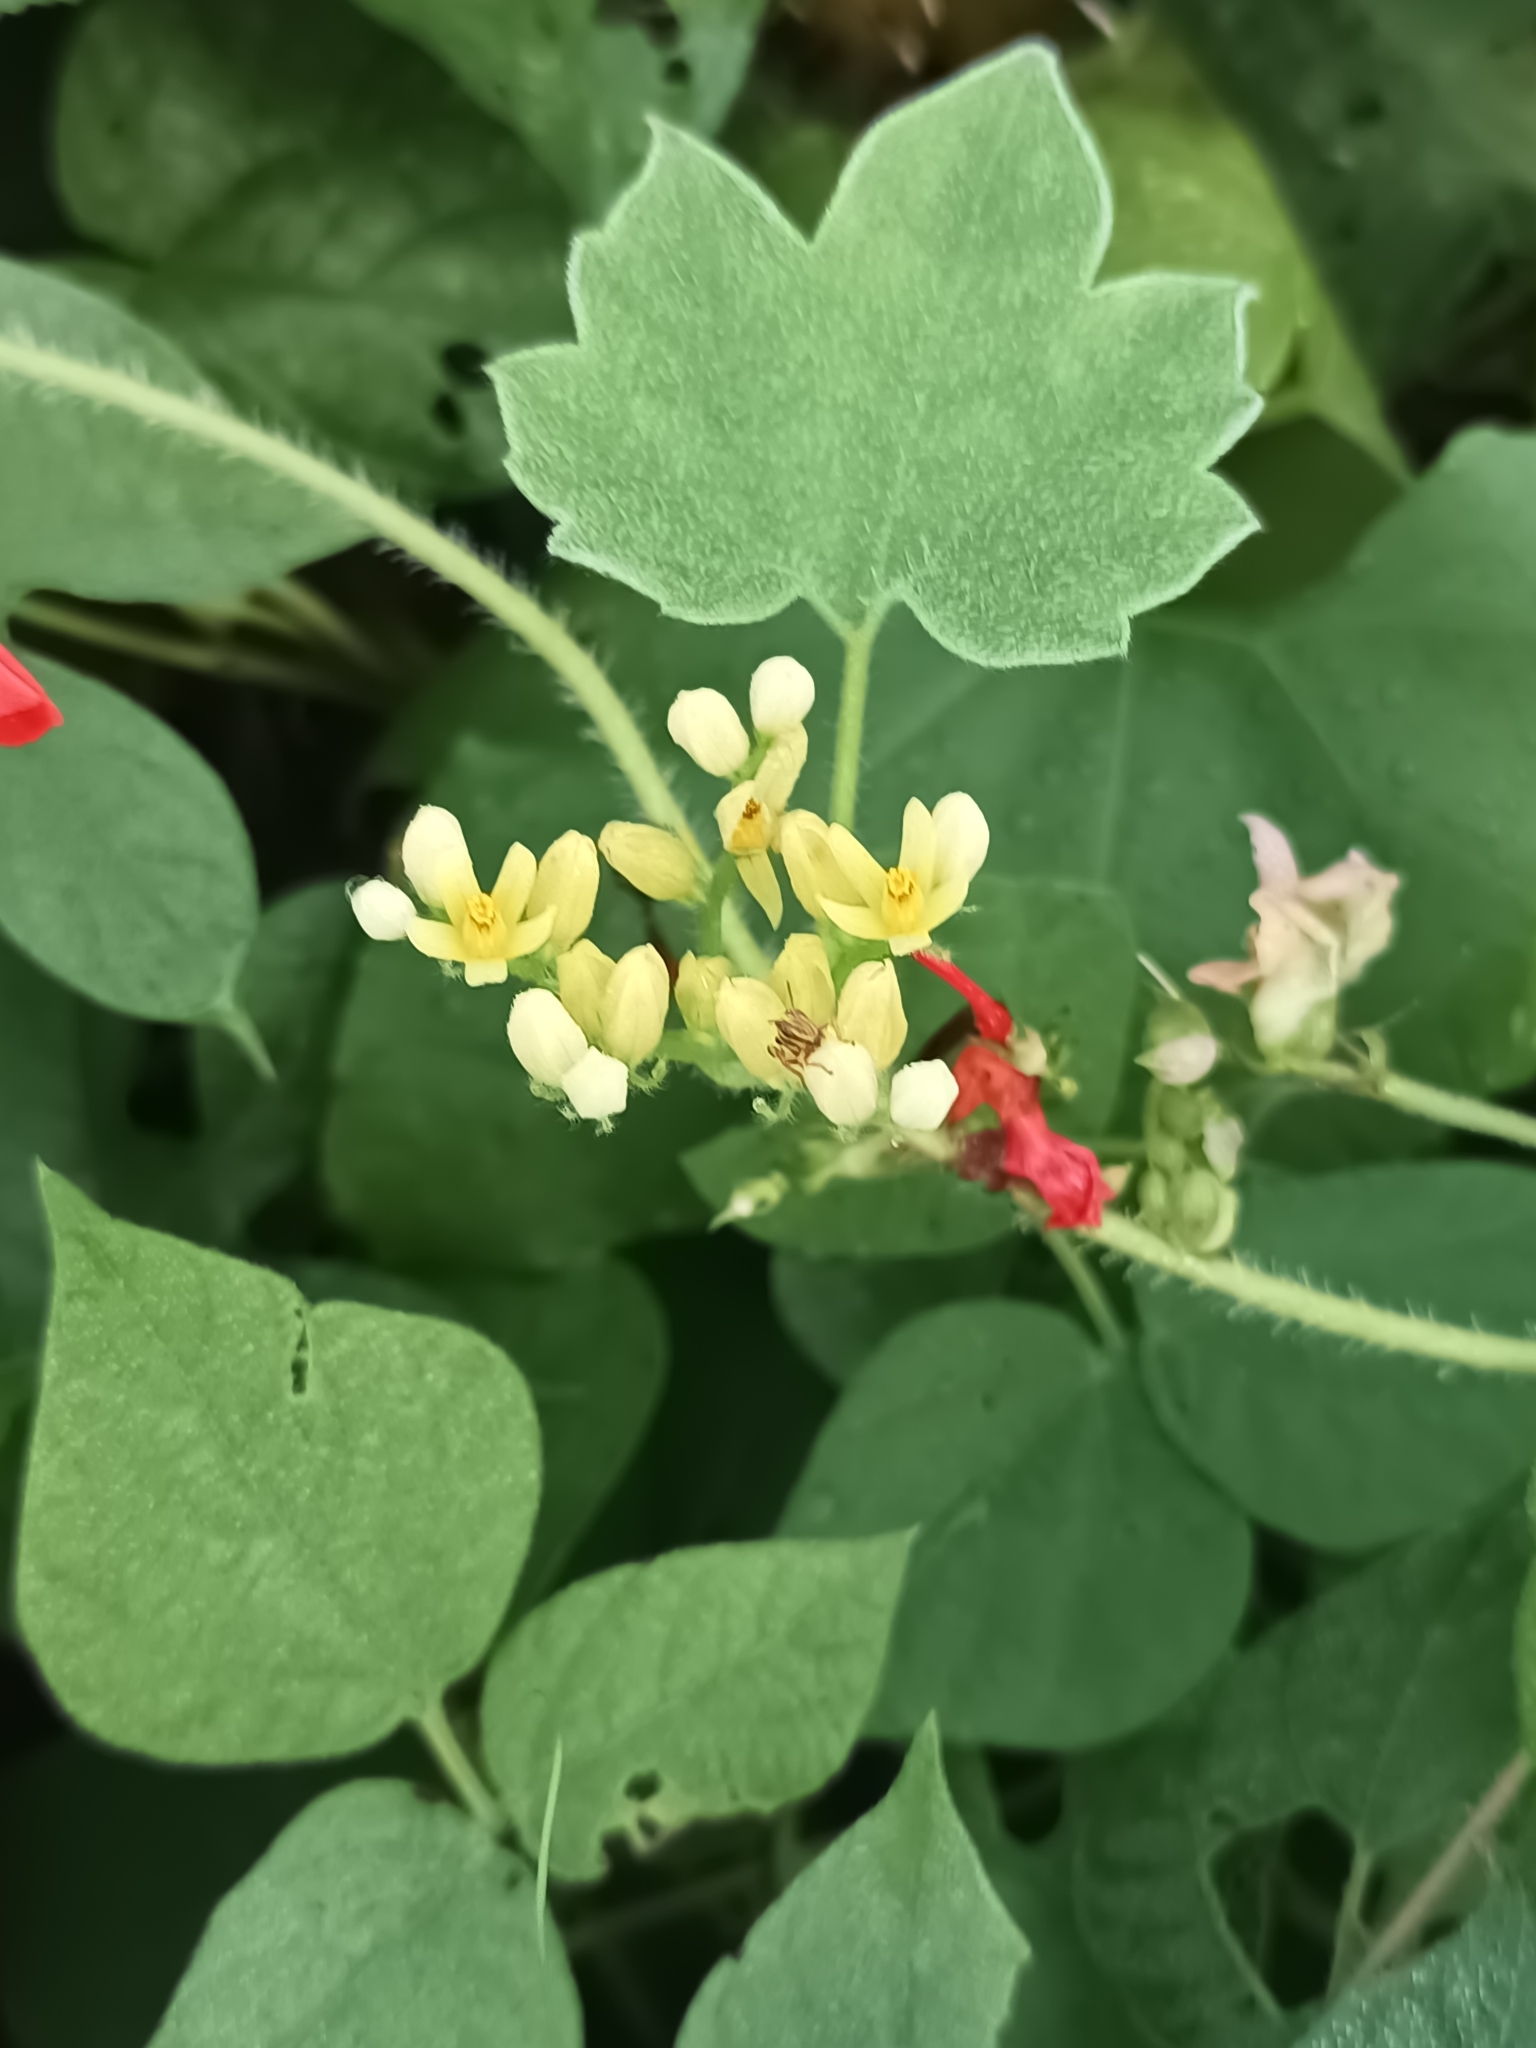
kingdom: Plantae
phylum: Tracheophyta
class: Magnoliopsida
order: Cornales
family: Loasaceae
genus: Gronovia
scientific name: Gronovia scandens
